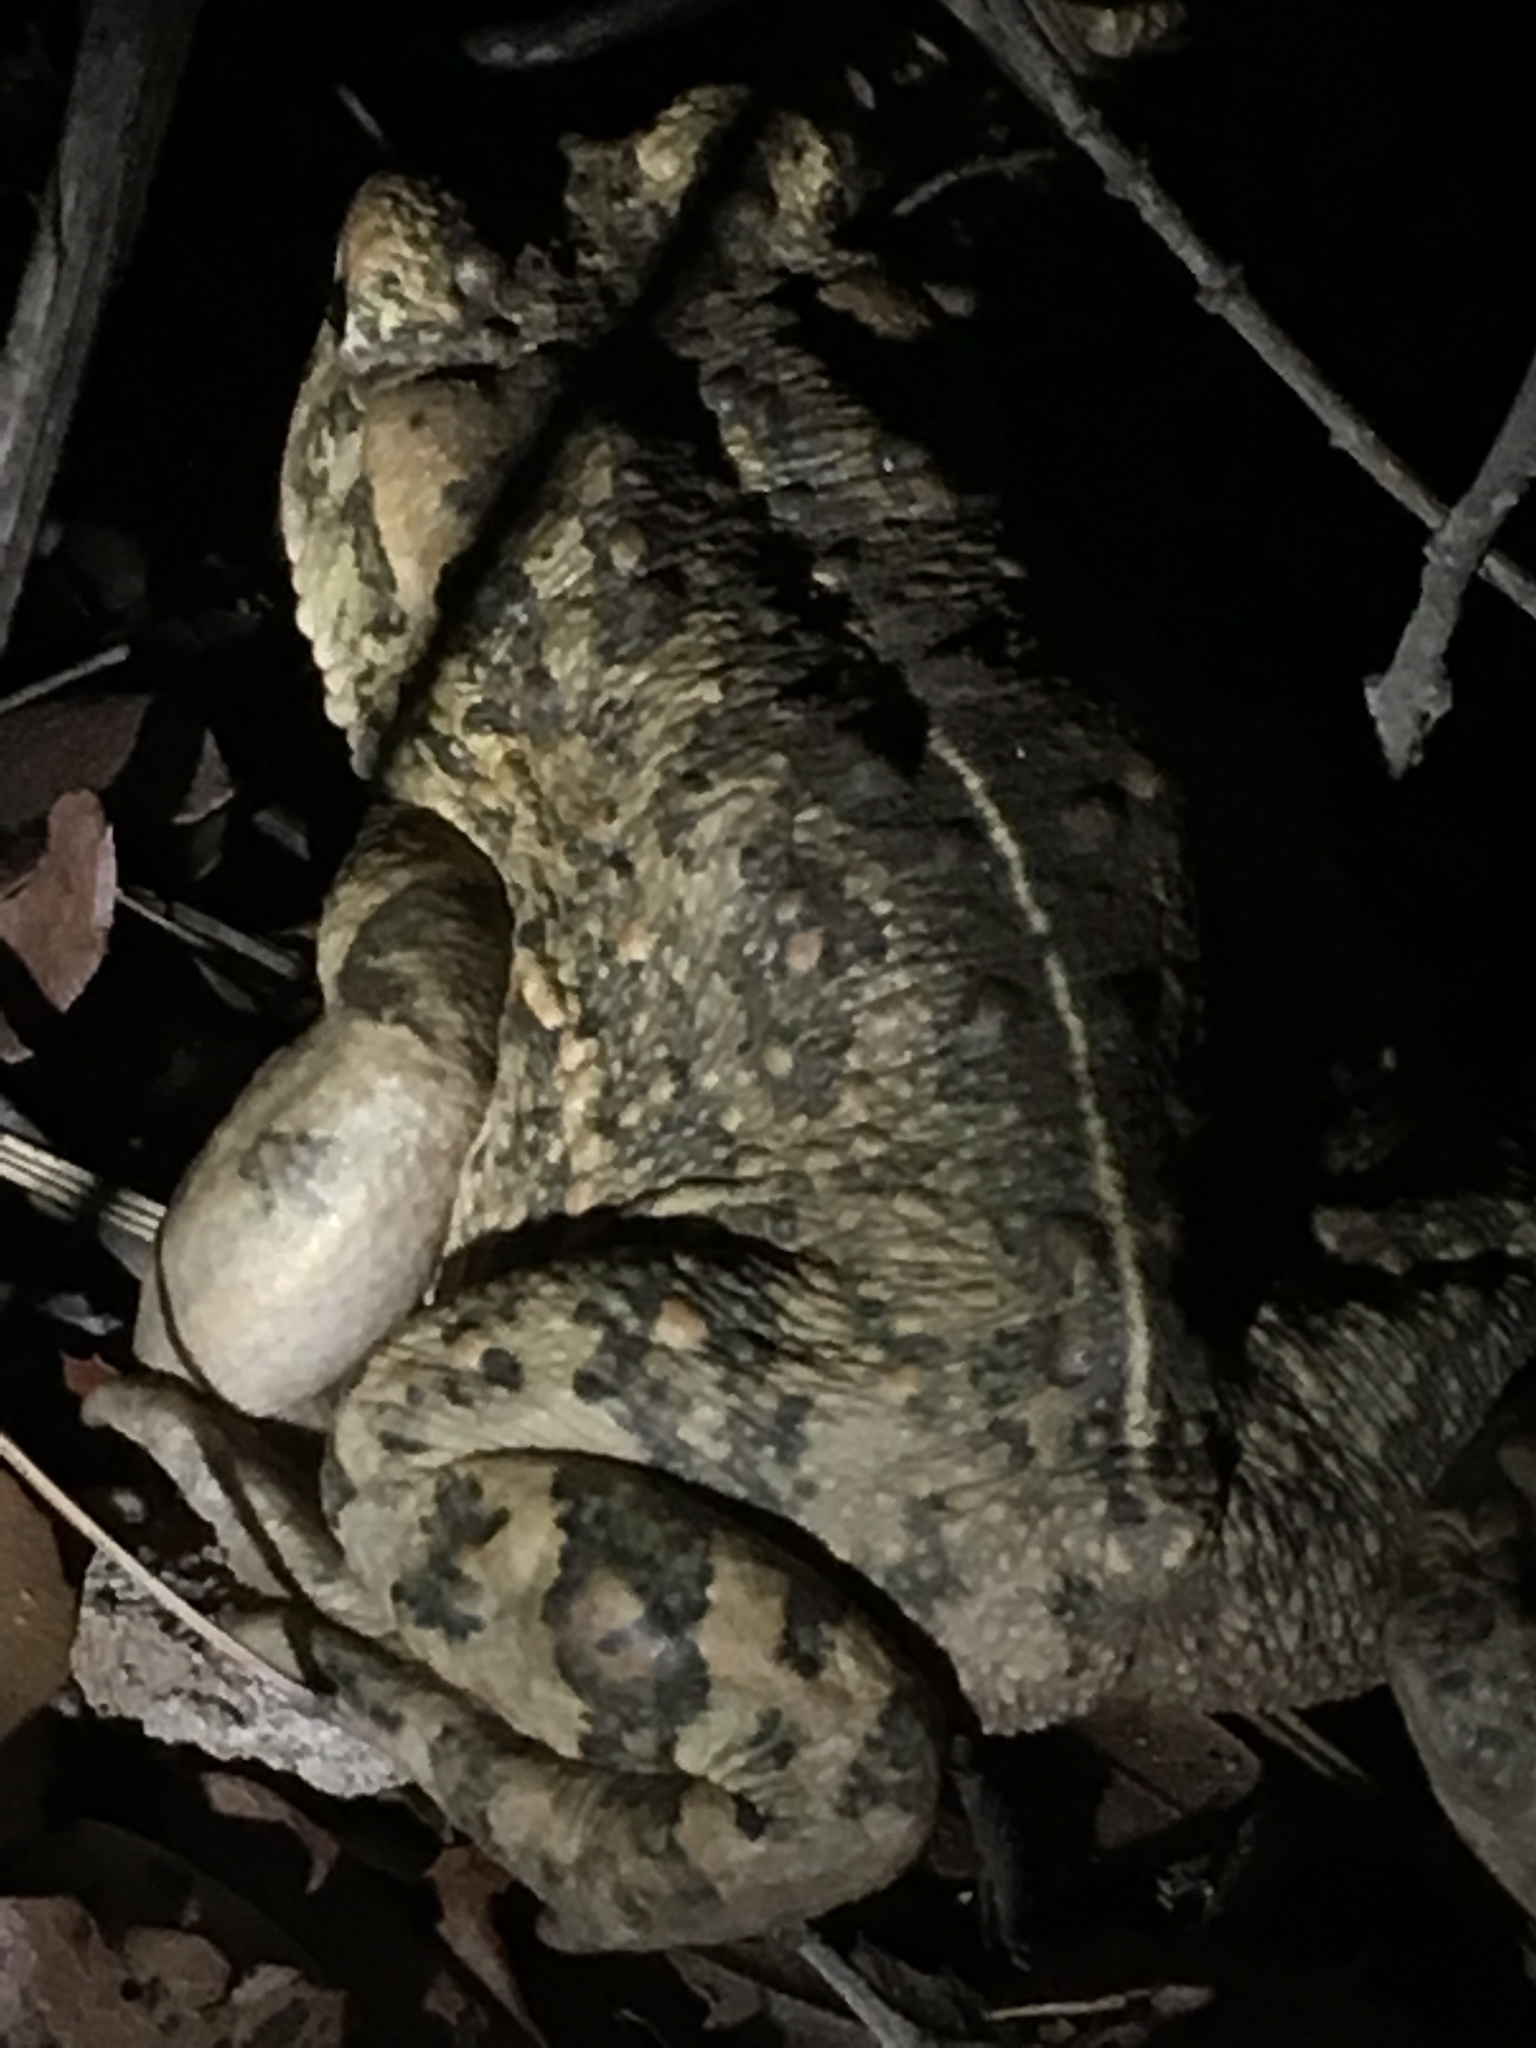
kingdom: Animalia
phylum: Chordata
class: Amphibia
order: Anura
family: Bufonidae
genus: Anaxyrus
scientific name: Anaxyrus boreas
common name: Western toad
